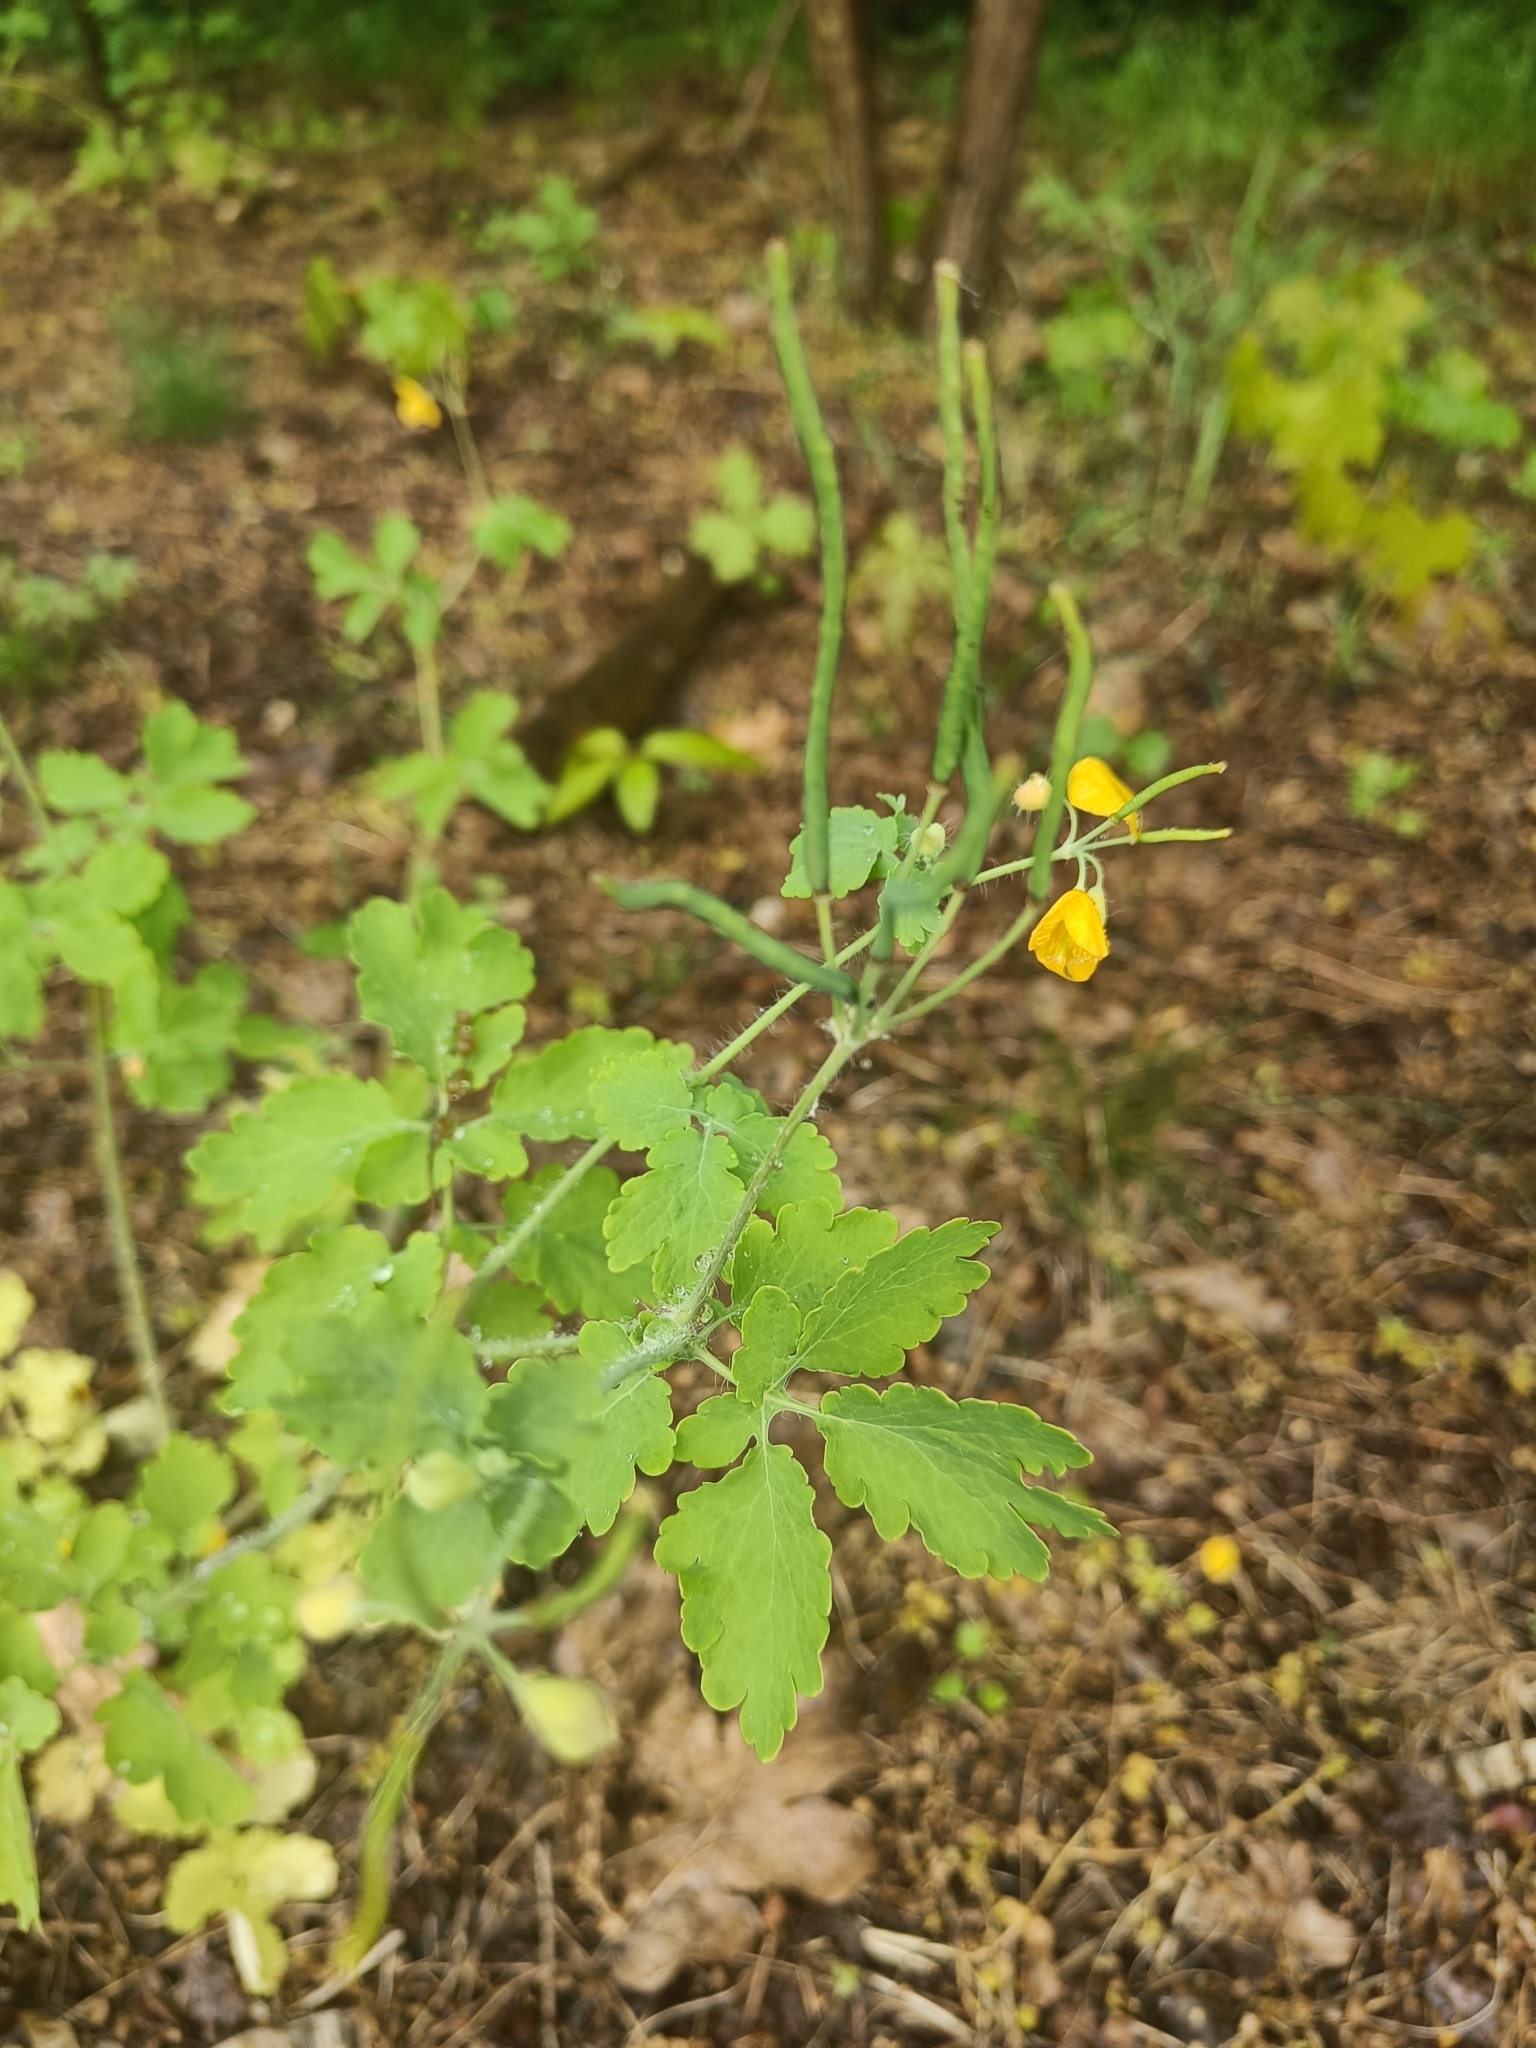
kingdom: Plantae
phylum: Tracheophyta
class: Magnoliopsida
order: Ranunculales
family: Papaveraceae
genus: Chelidonium
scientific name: Chelidonium majus
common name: Greater celandine
